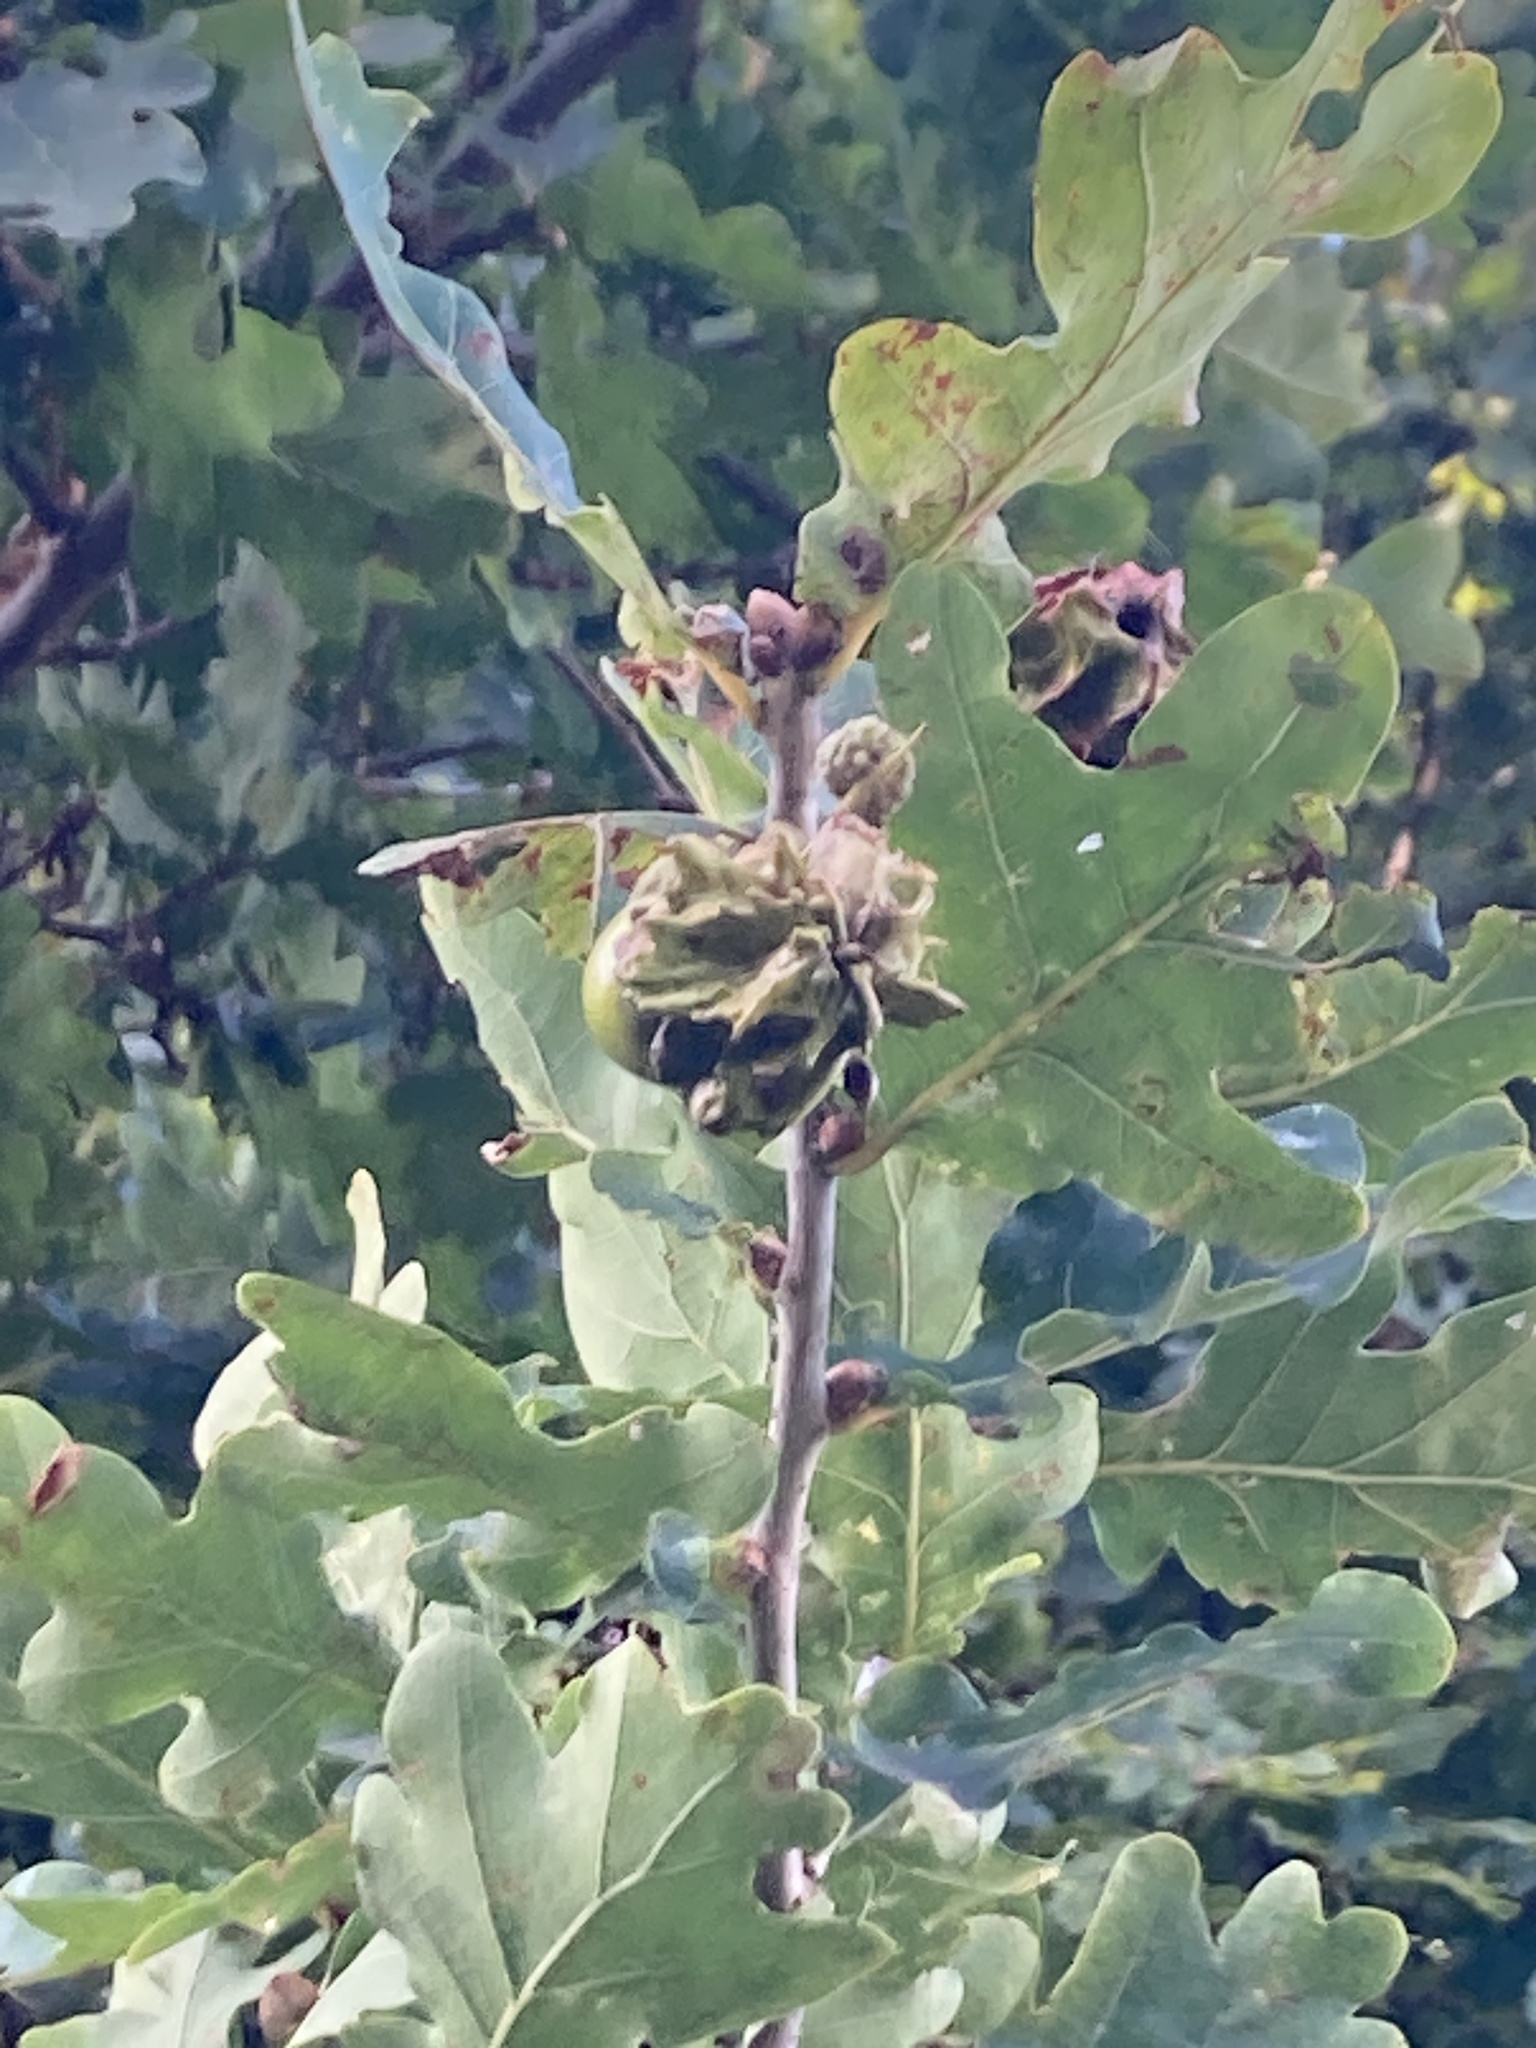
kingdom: Animalia
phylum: Arthropoda
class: Insecta
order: Hymenoptera
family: Cynipidae
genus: Andricus
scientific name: Andricus quercuscalicis
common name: Knopper gall
